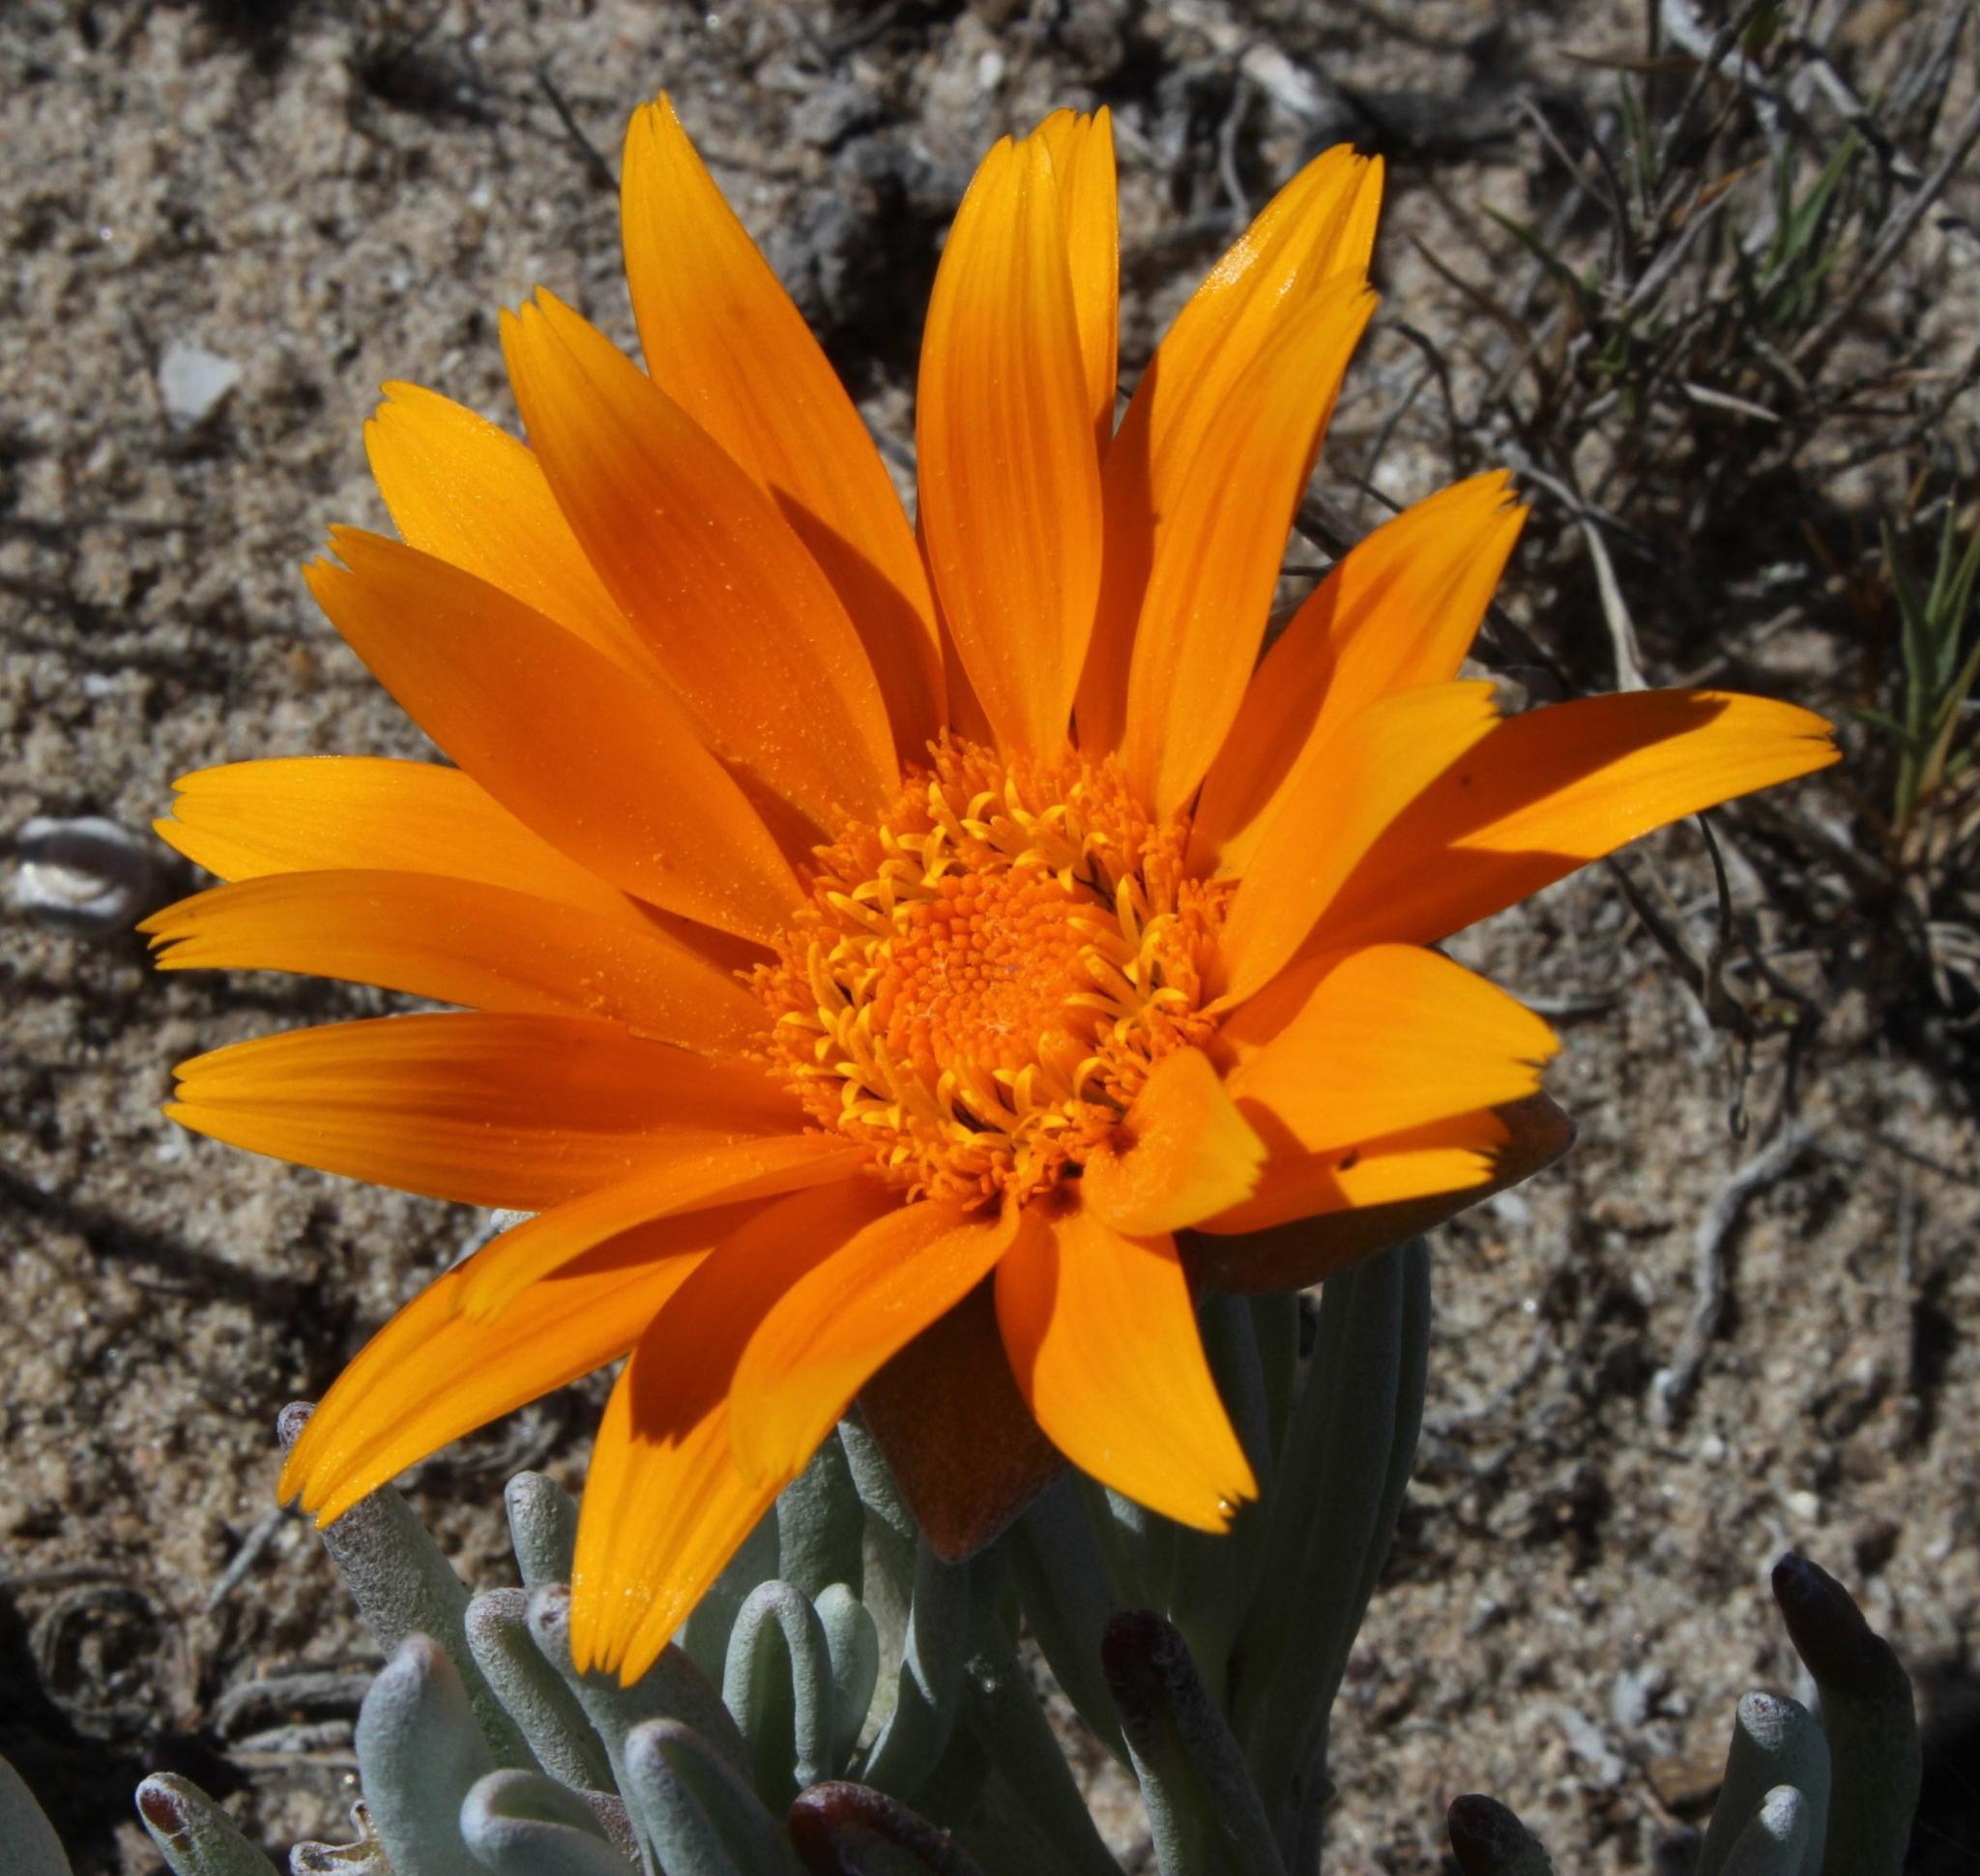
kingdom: Plantae
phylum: Tracheophyta
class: Magnoliopsida
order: Asterales
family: Asteraceae
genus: Didelta
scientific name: Didelta carnosa
